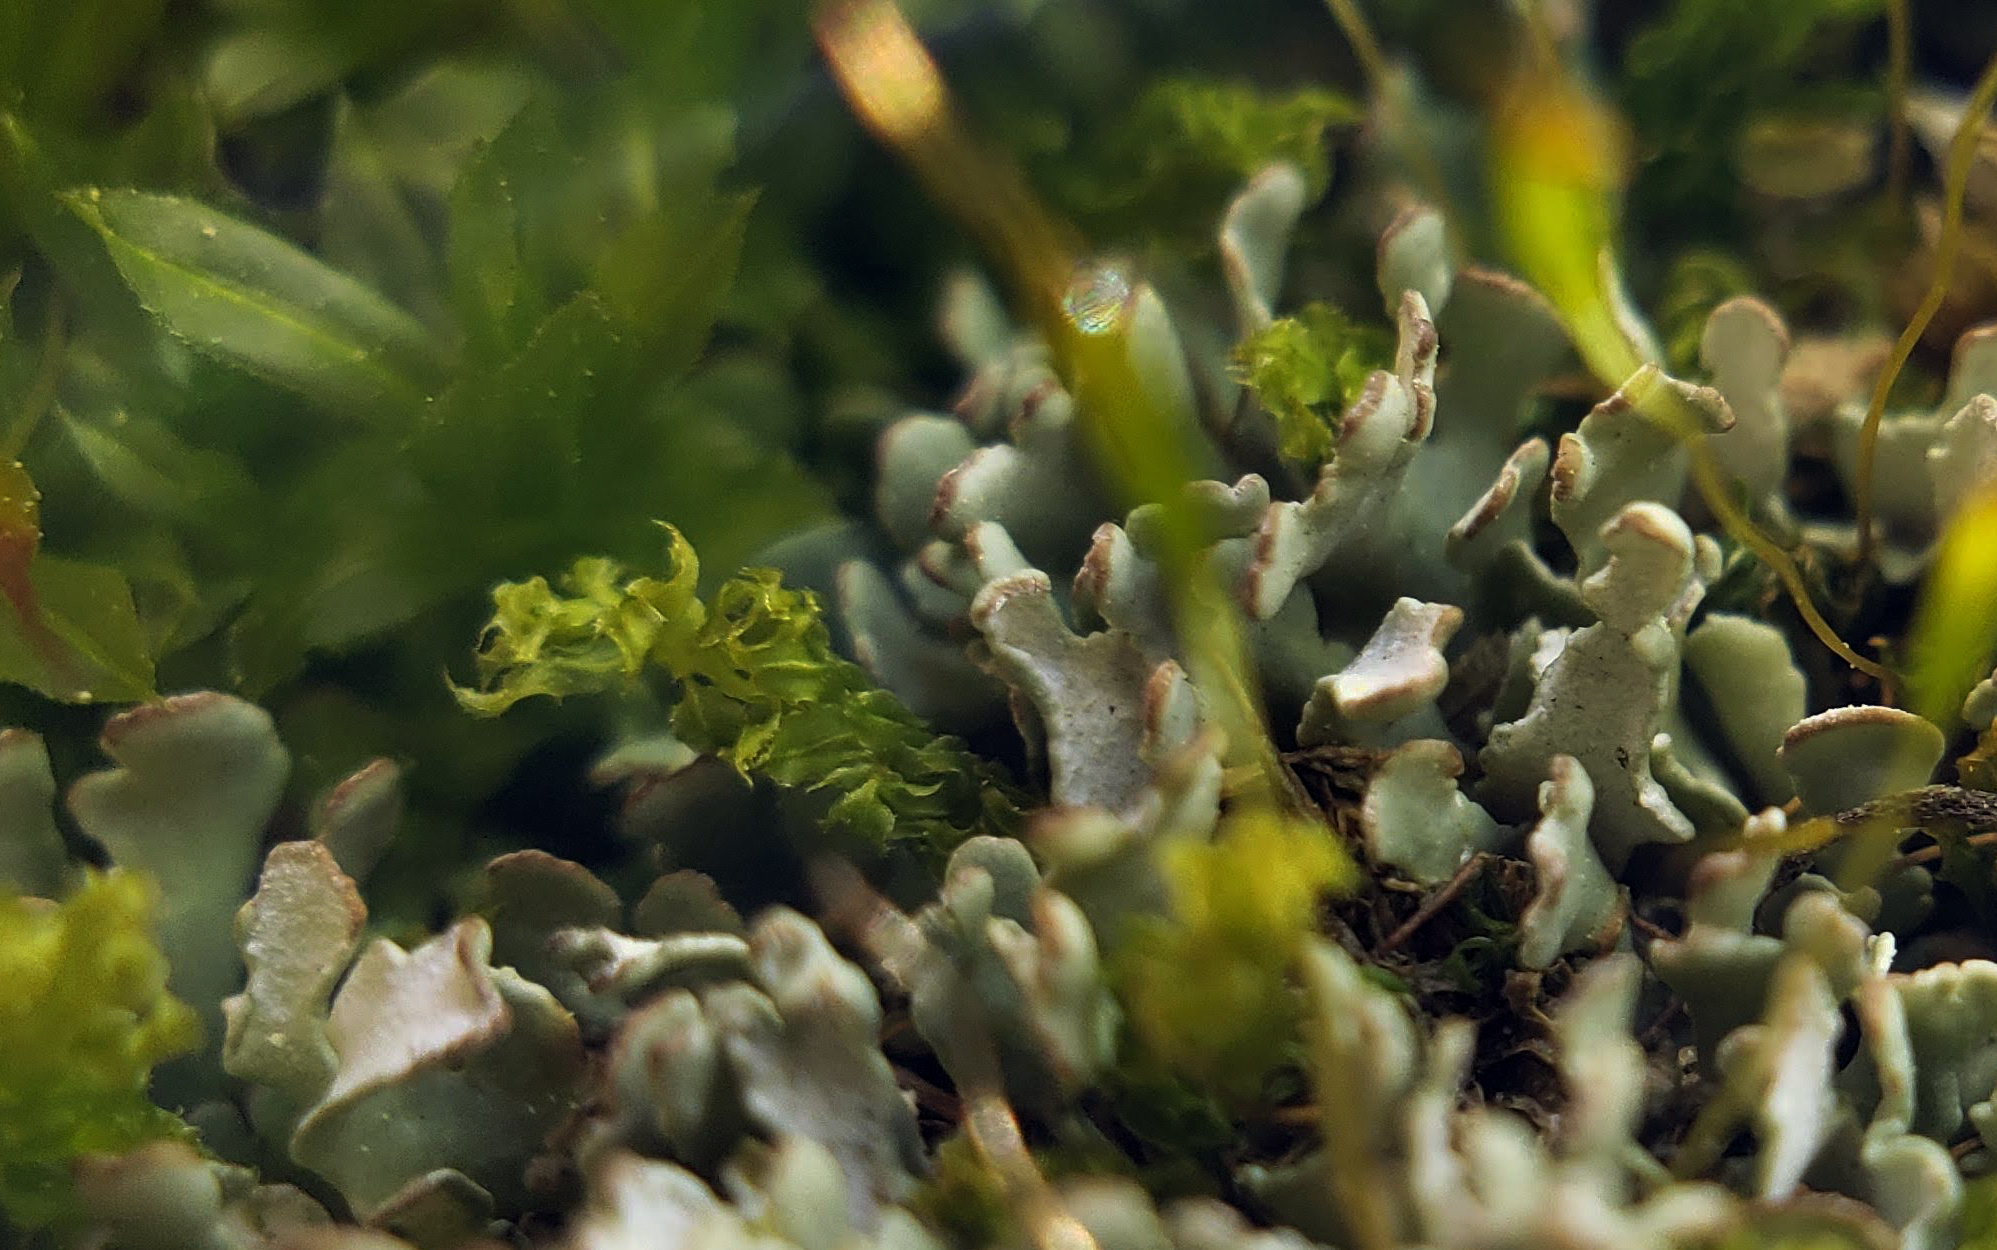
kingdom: Fungi
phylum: Ascomycota
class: Lecanoromycetes
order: Lecanorales
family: Cladoniaceae
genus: Cladonia
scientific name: Cladonia apodocarpa
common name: Stalkless cladonia
